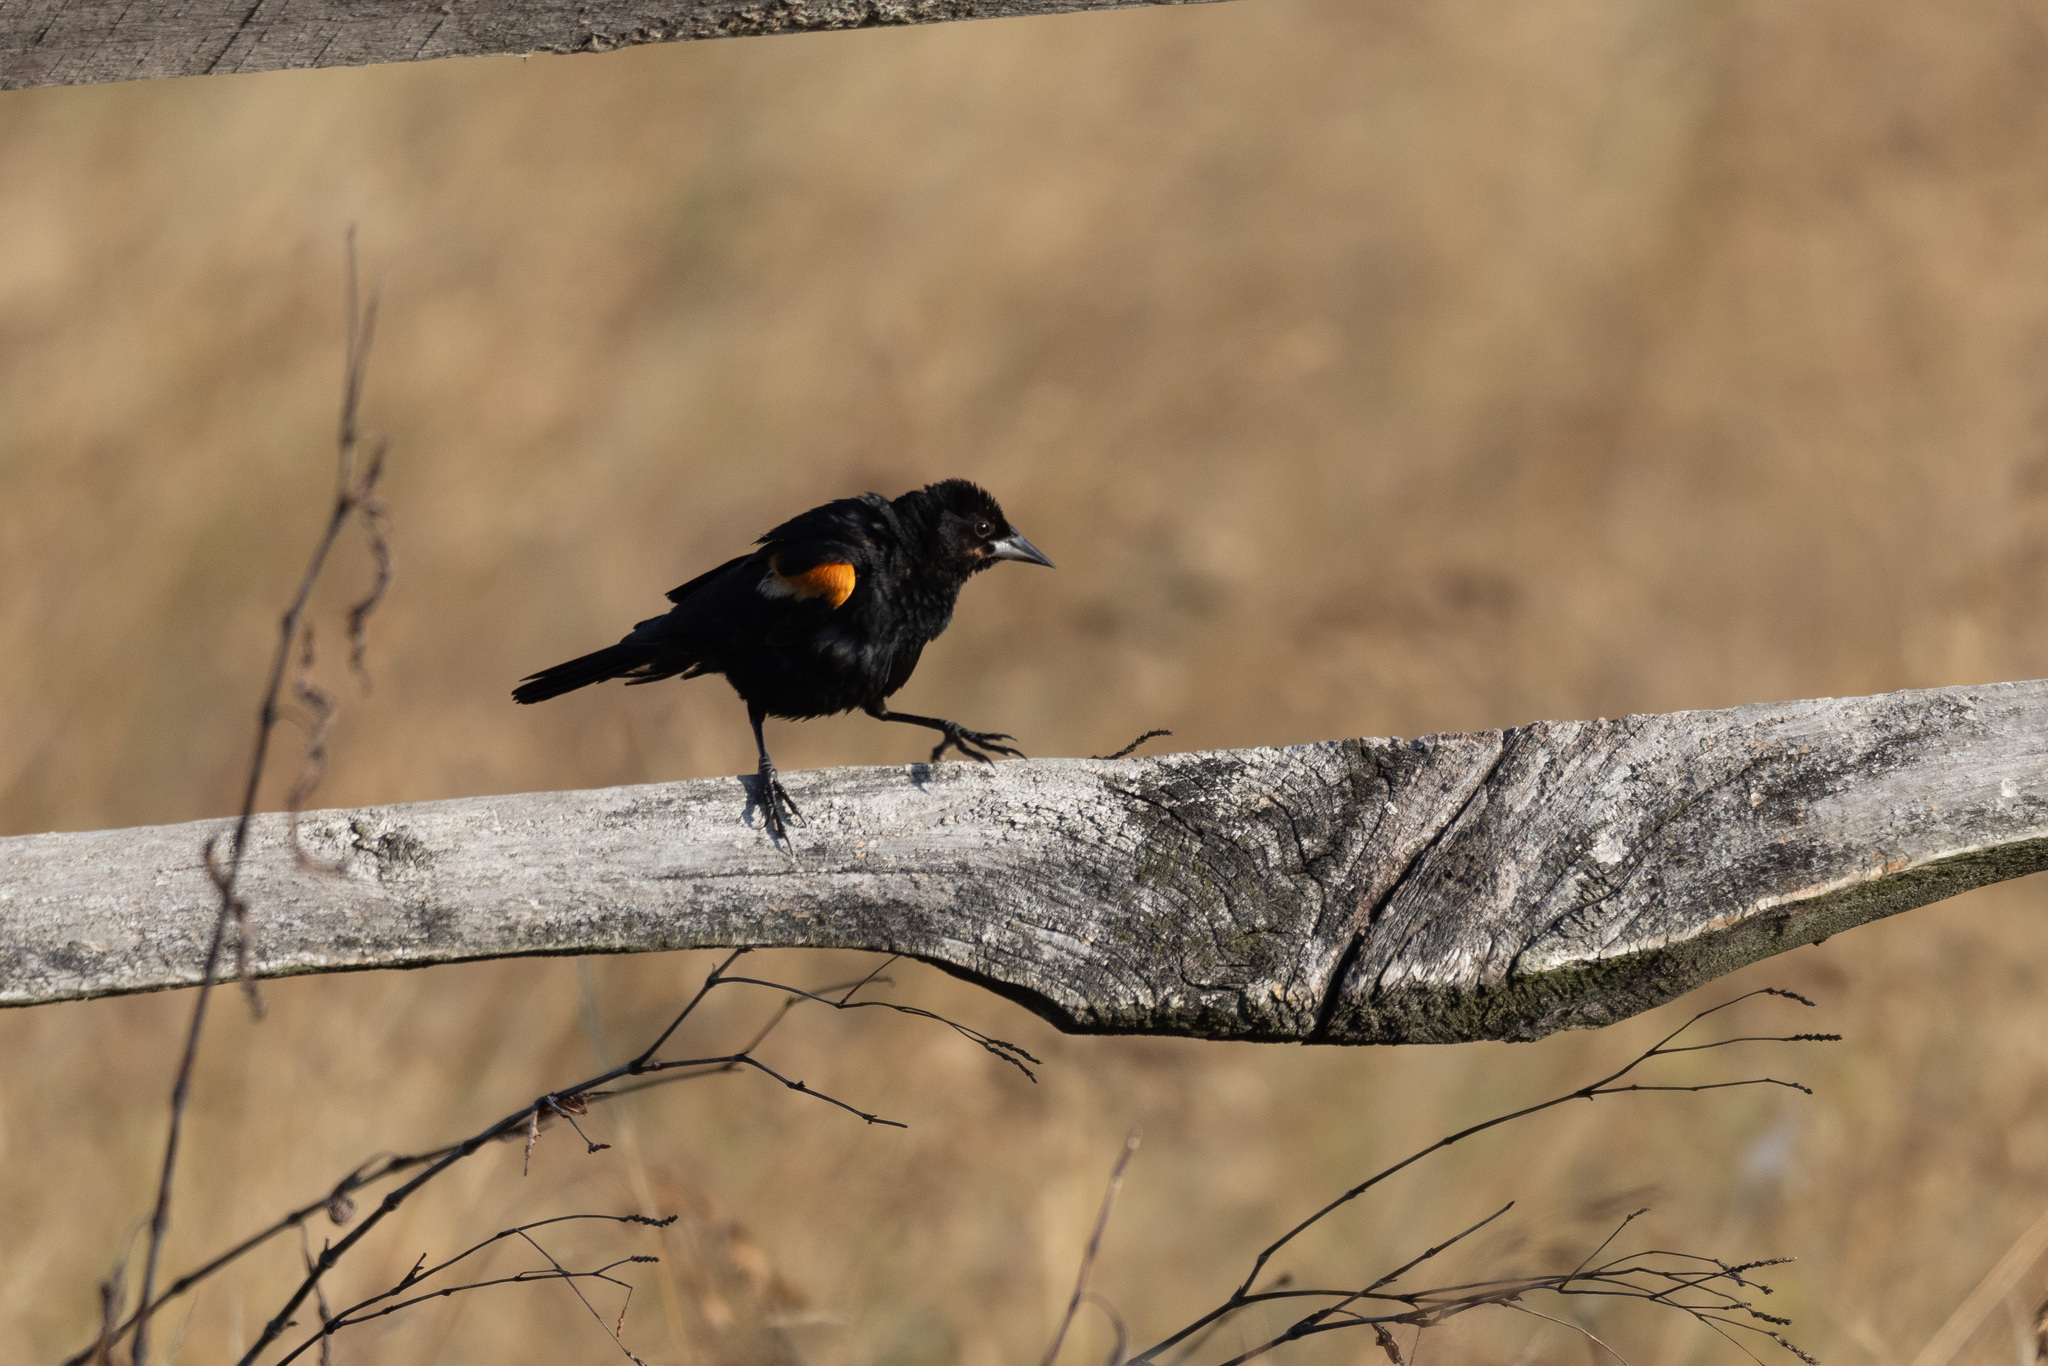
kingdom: Animalia
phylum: Chordata
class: Aves
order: Passeriformes
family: Icteridae
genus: Agelaius
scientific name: Agelaius phoeniceus
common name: Red-winged blackbird
